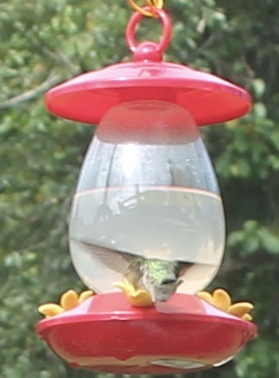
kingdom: Animalia
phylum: Chordata
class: Aves
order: Apodiformes
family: Trochilidae
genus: Archilochus
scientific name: Archilochus colubris
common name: Ruby-throated hummingbird
